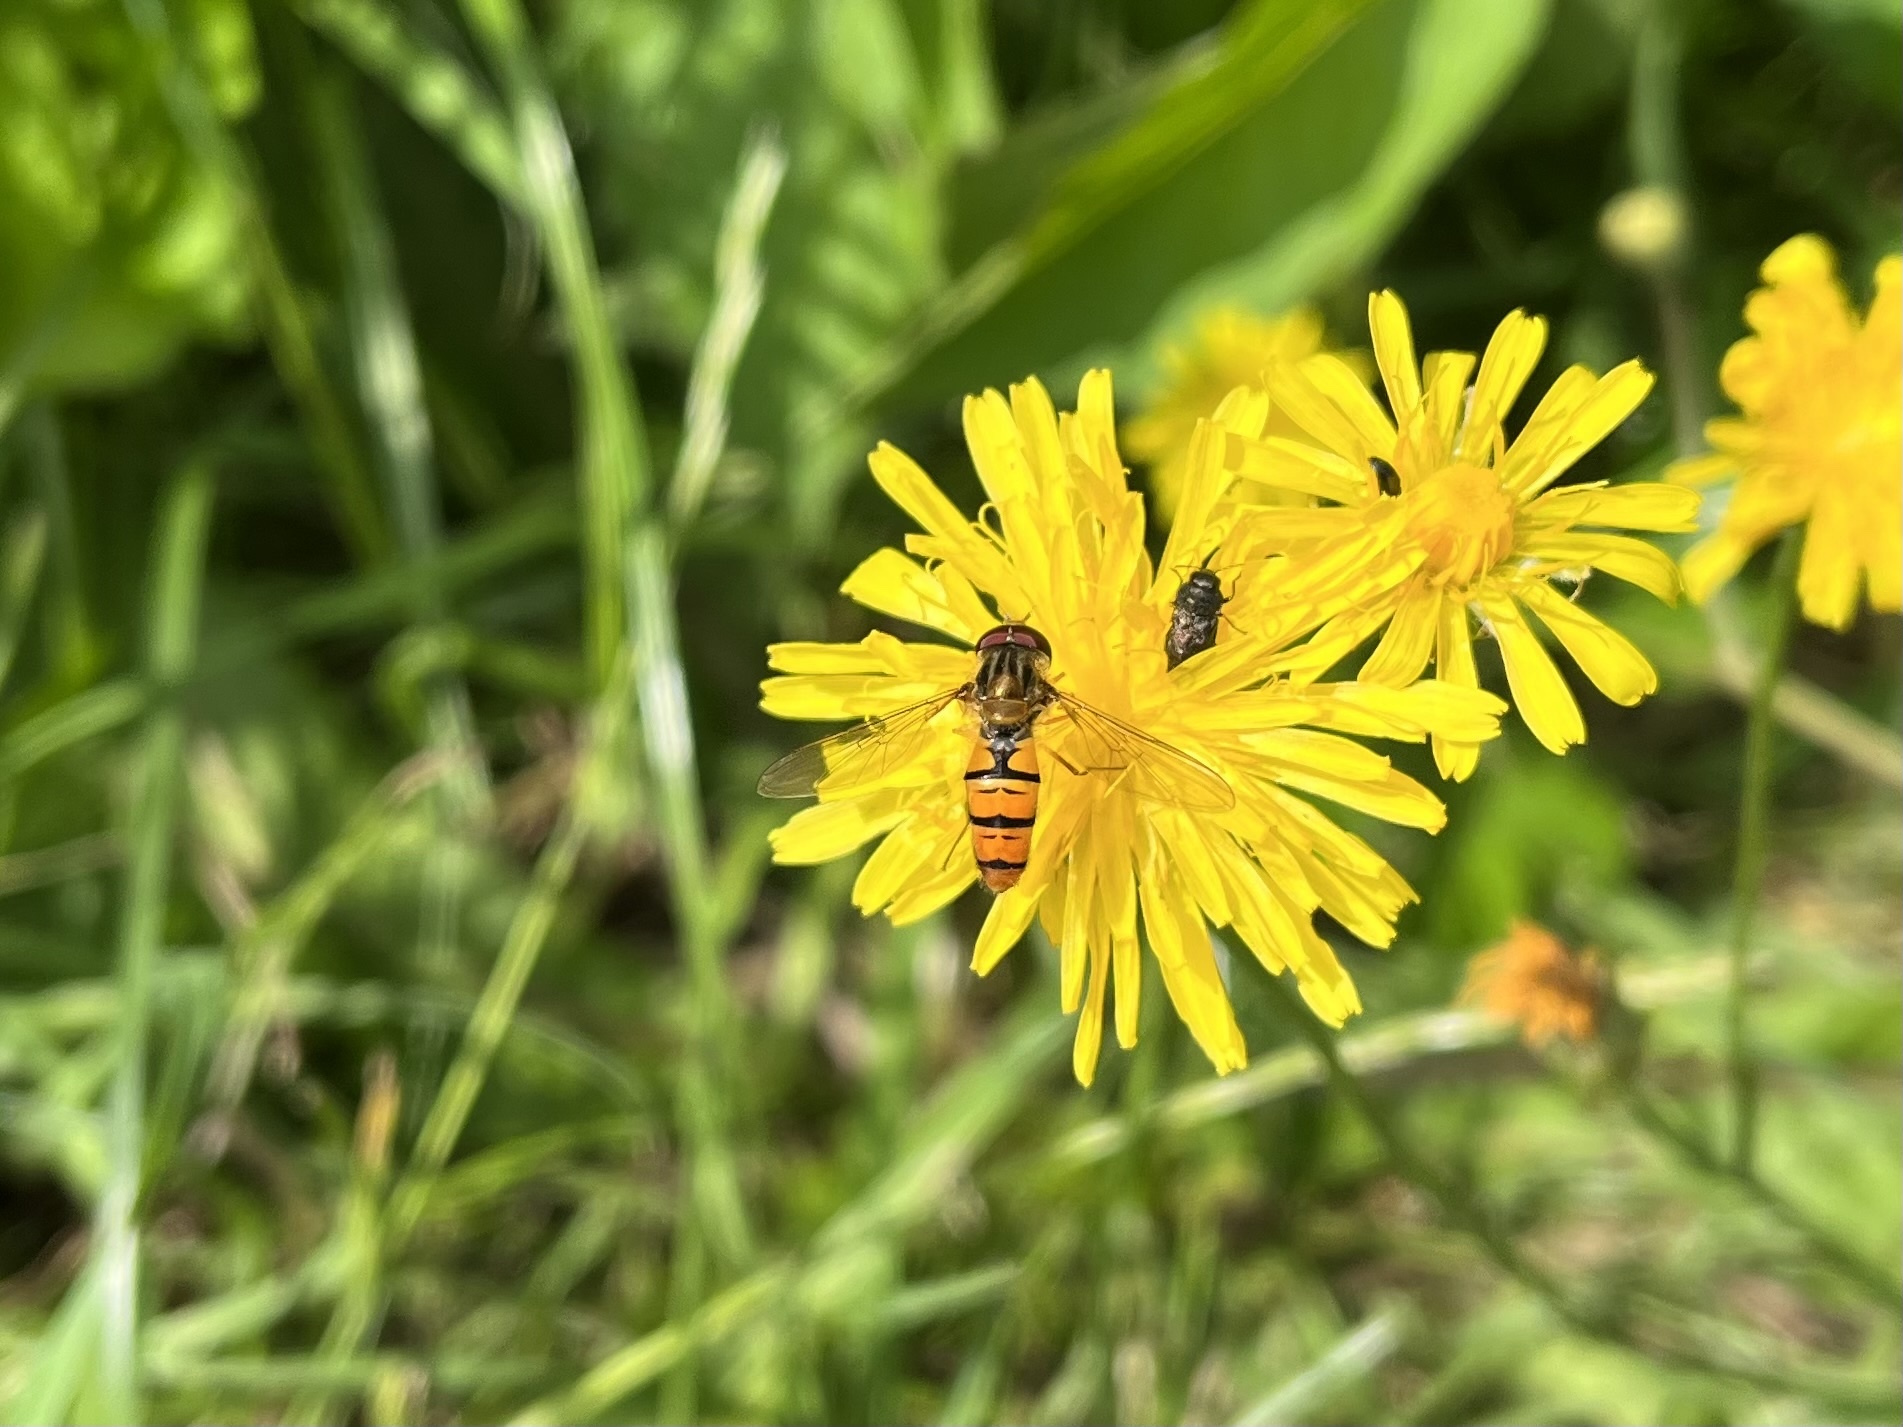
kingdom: Animalia
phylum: Arthropoda
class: Insecta
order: Diptera
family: Syrphidae
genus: Episyrphus
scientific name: Episyrphus balteatus
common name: Marmalade hoverfly
